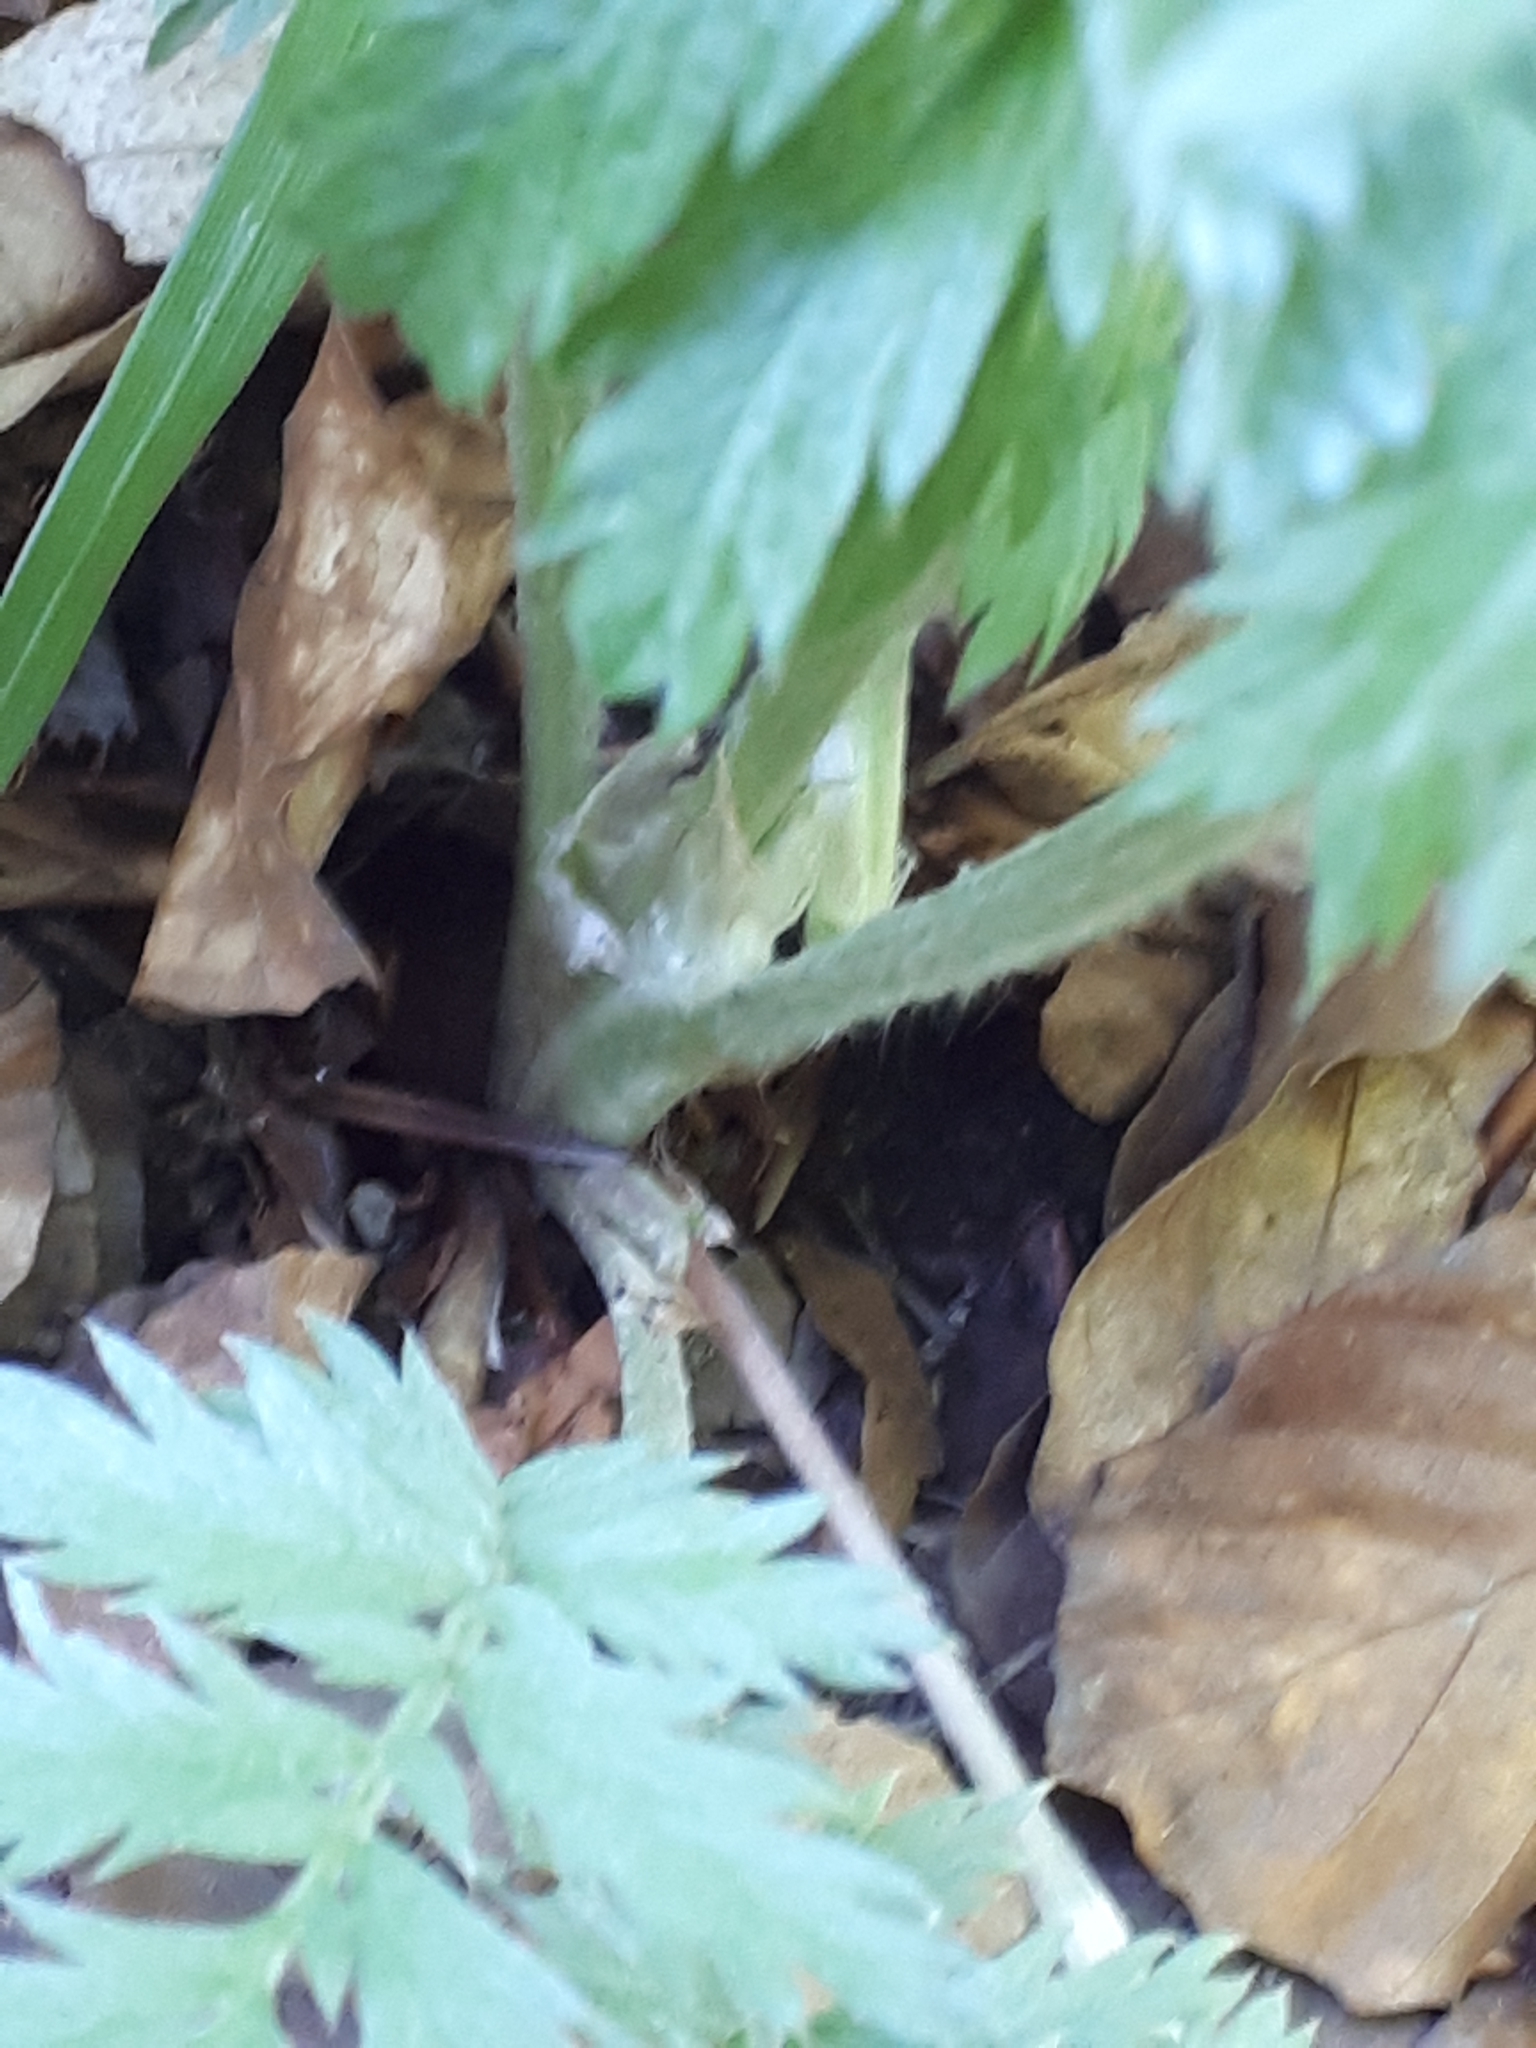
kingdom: Plantae
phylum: Tracheophyta
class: Magnoliopsida
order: Rosales
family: Rosaceae
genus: Argentina
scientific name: Argentina anserina
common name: Common silverweed
